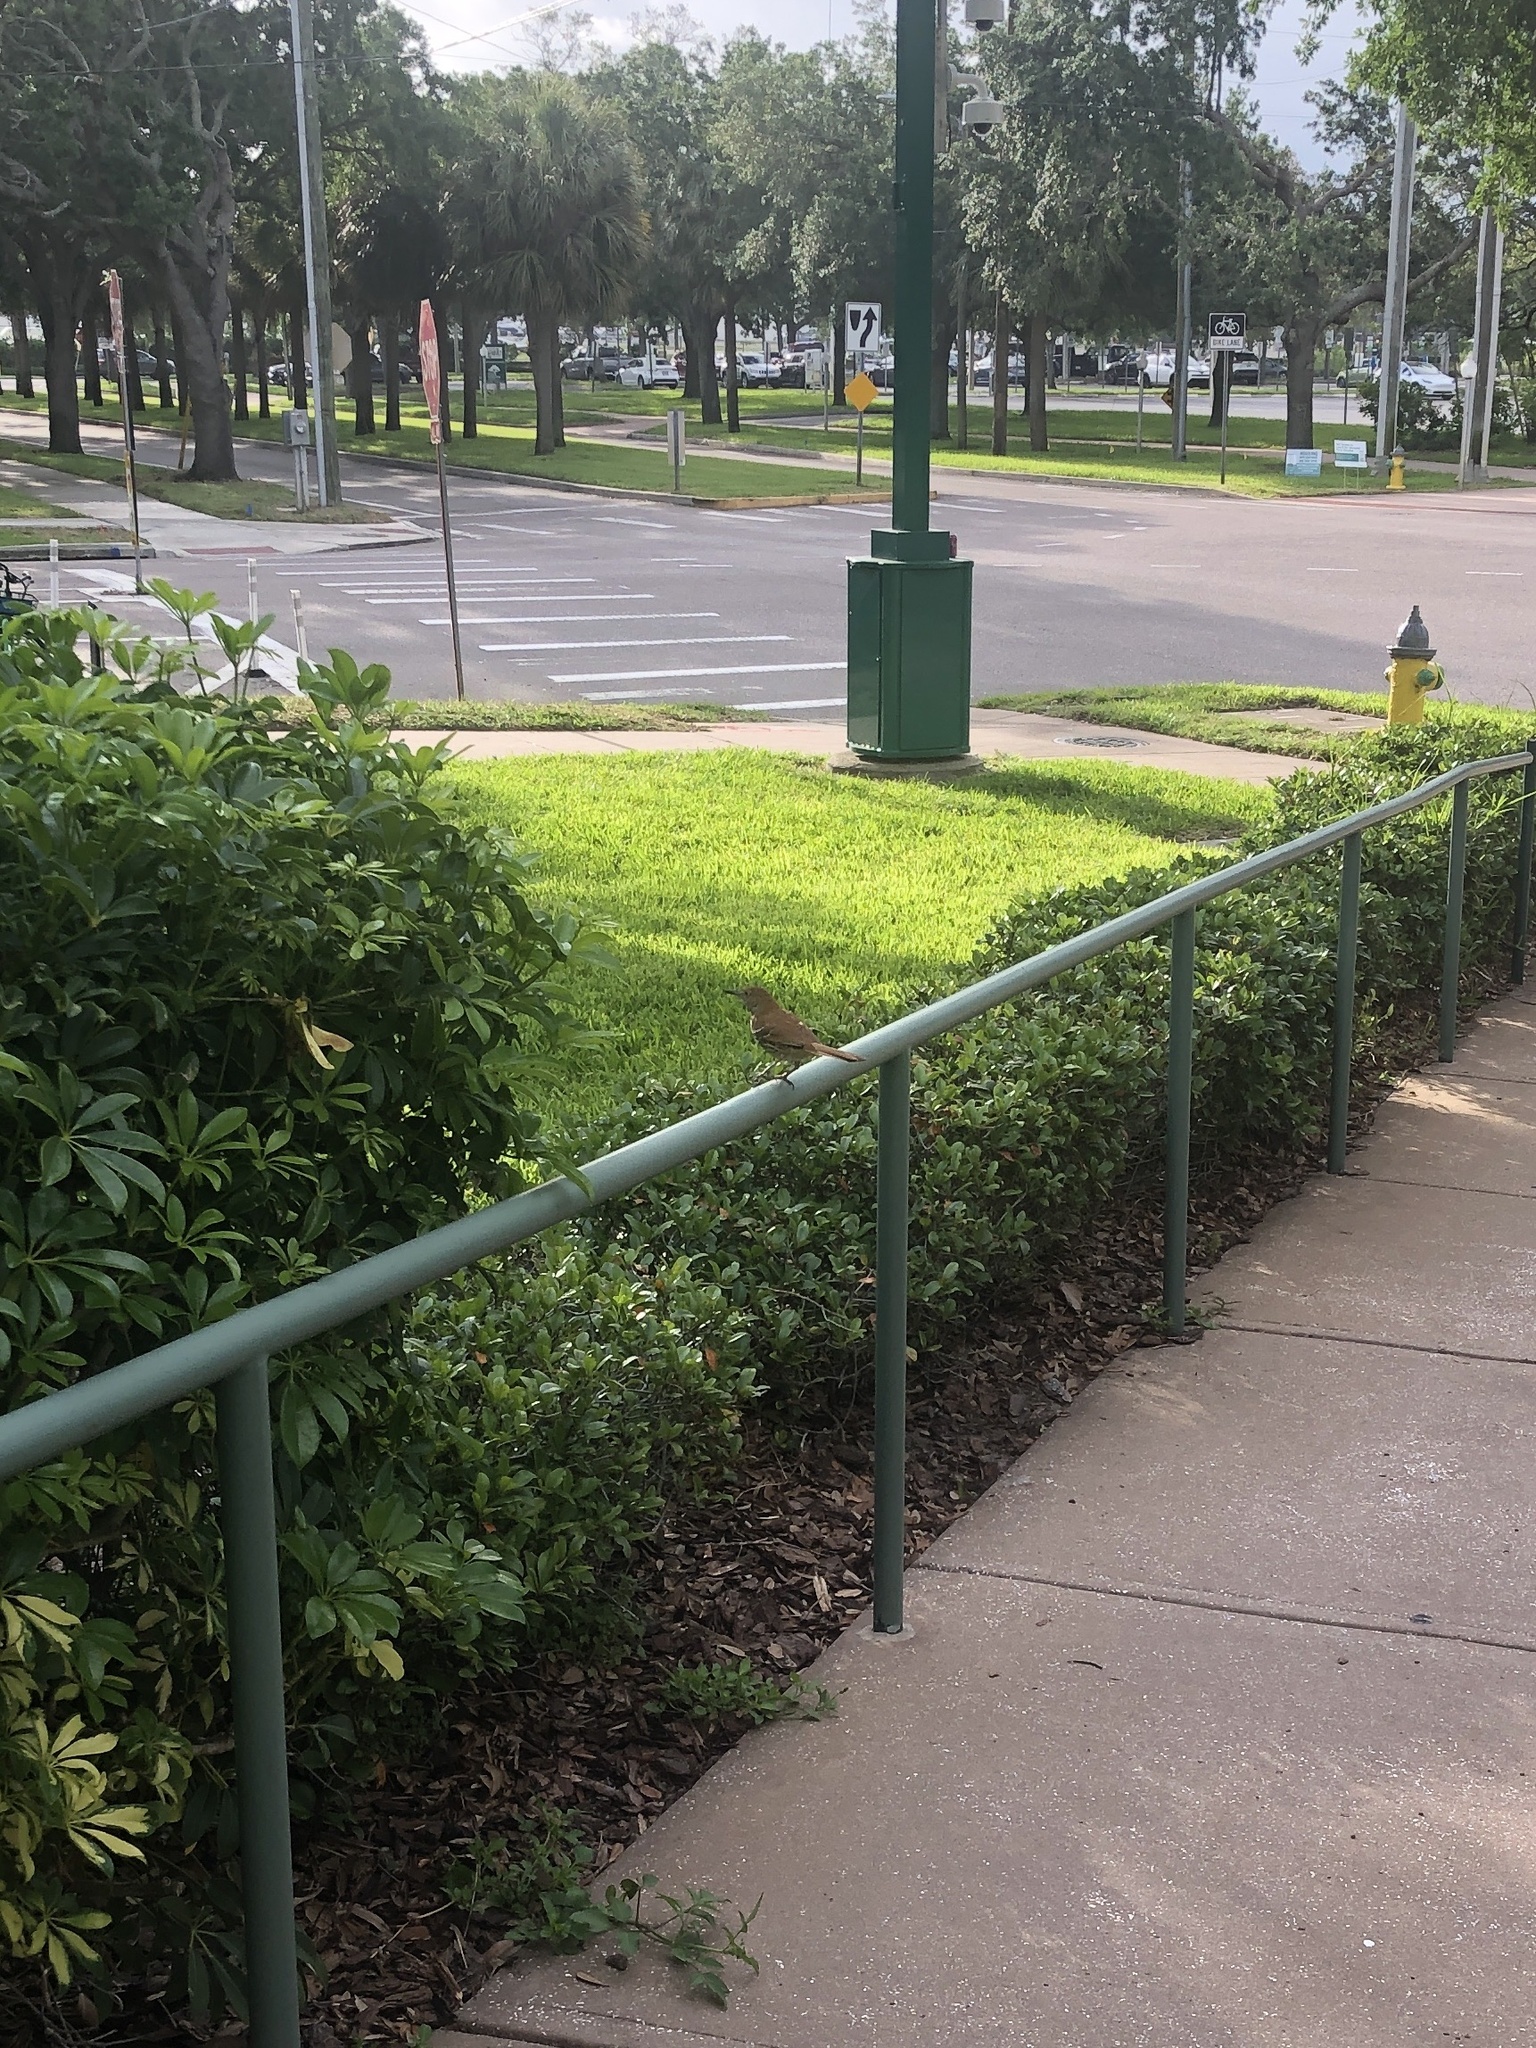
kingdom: Animalia
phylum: Chordata
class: Aves
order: Passeriformes
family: Mimidae
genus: Toxostoma
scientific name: Toxostoma rufum
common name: Brown thrasher
